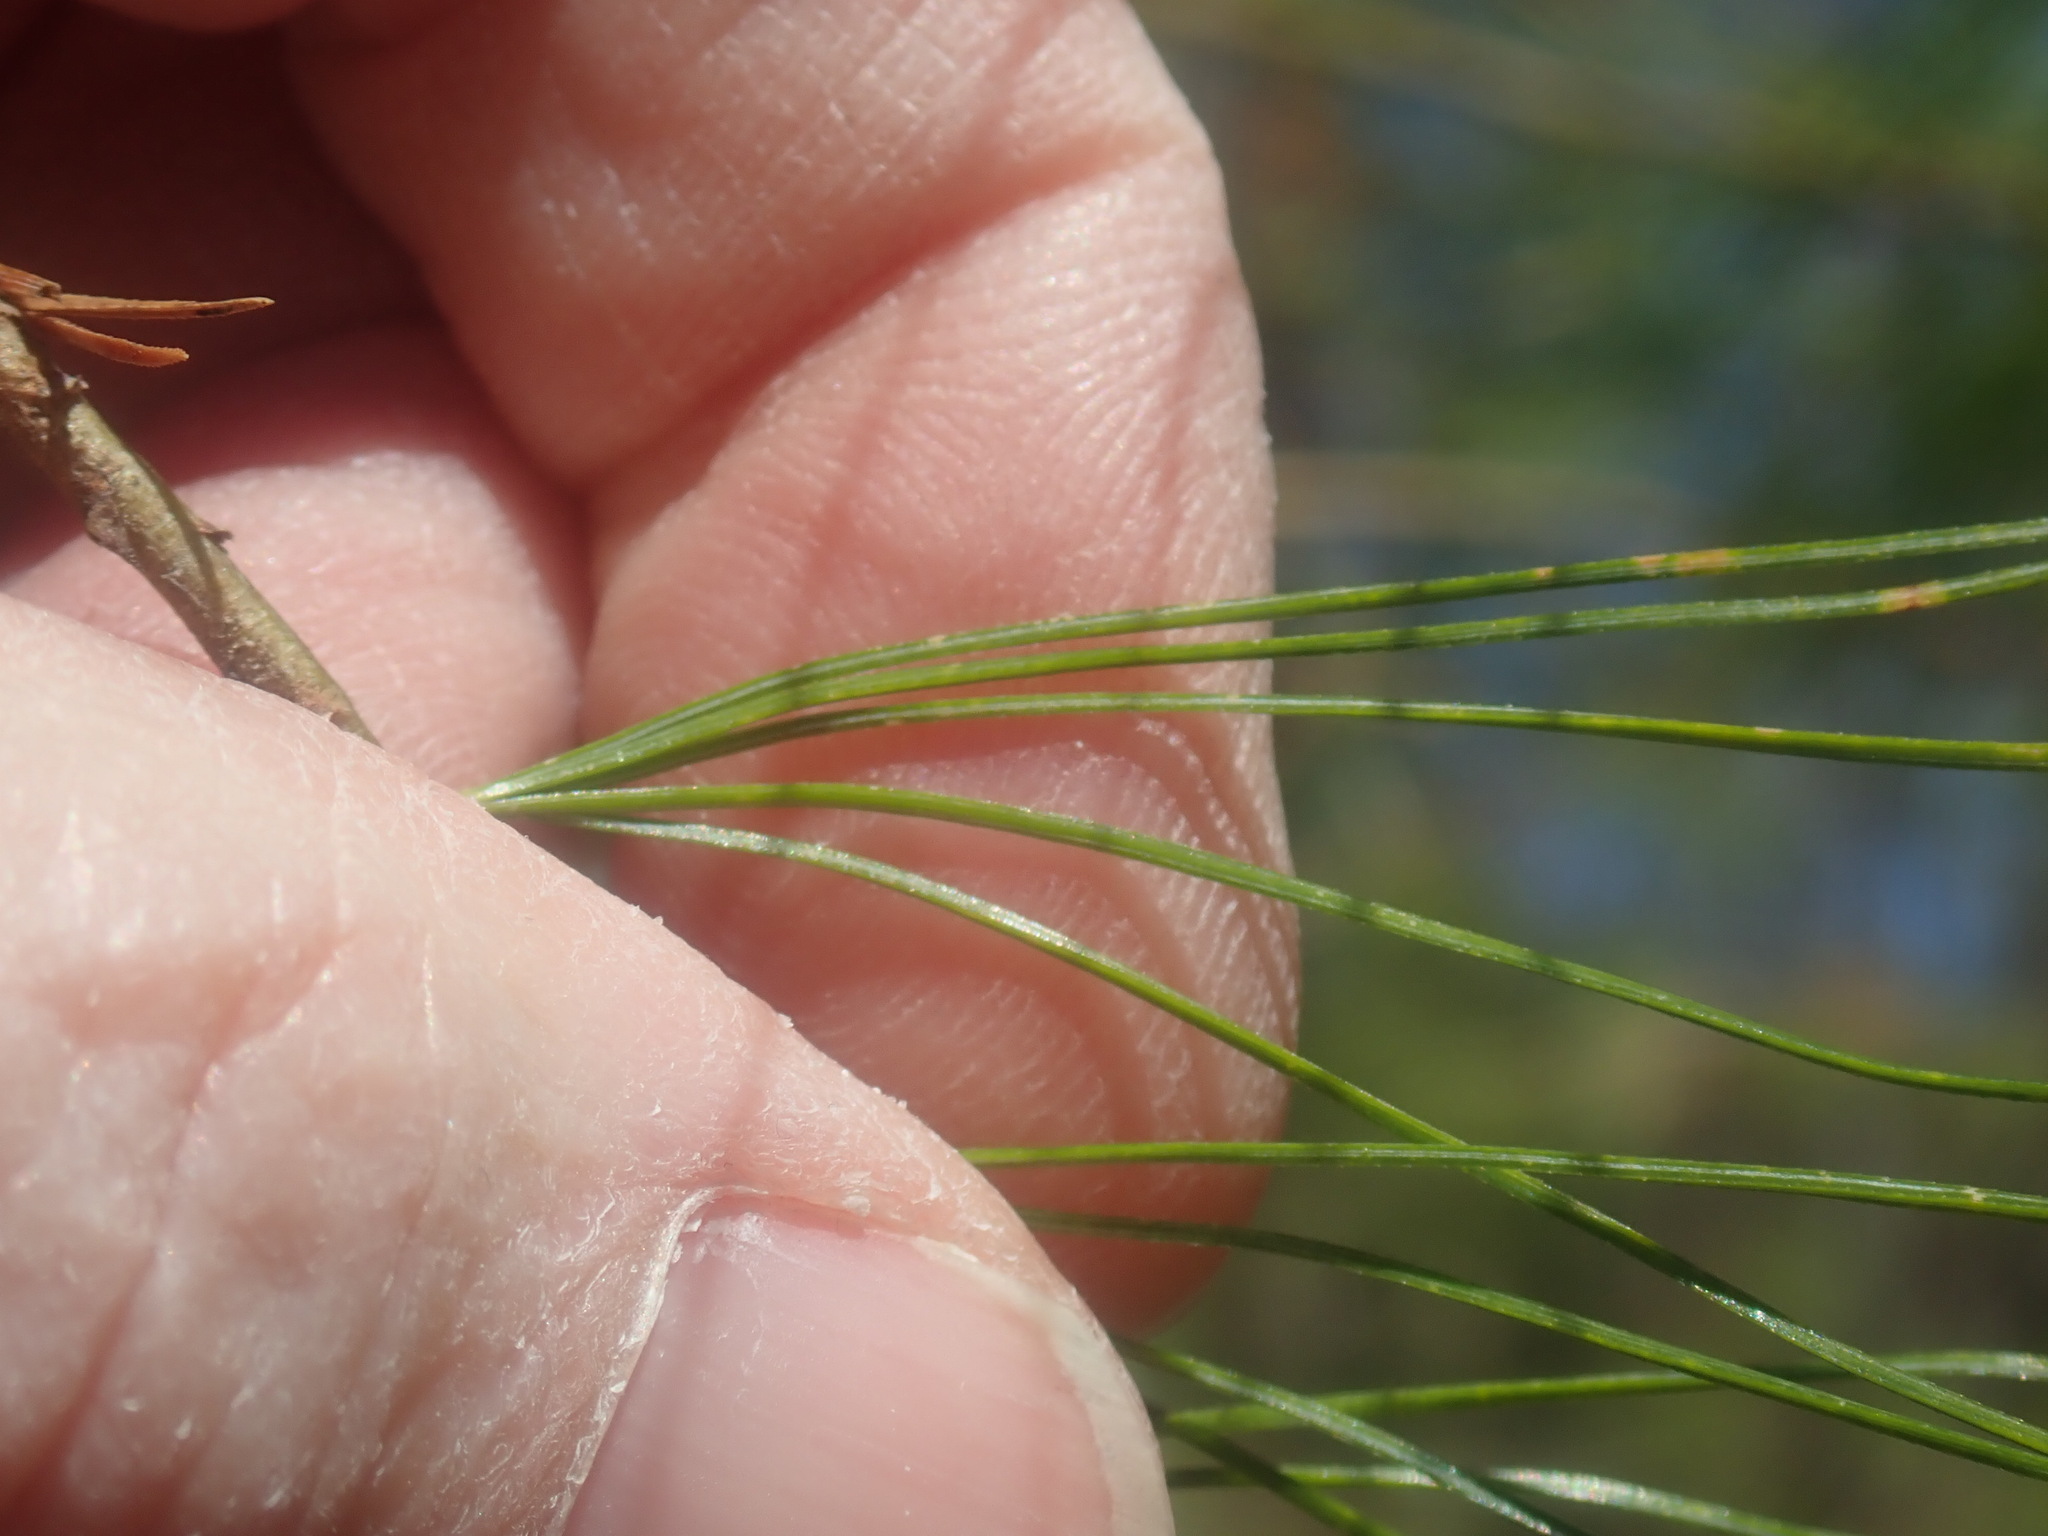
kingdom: Plantae
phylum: Tracheophyta
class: Pinopsida
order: Pinales
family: Pinaceae
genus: Pinus
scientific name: Pinus strobus
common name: Weymouth pine
